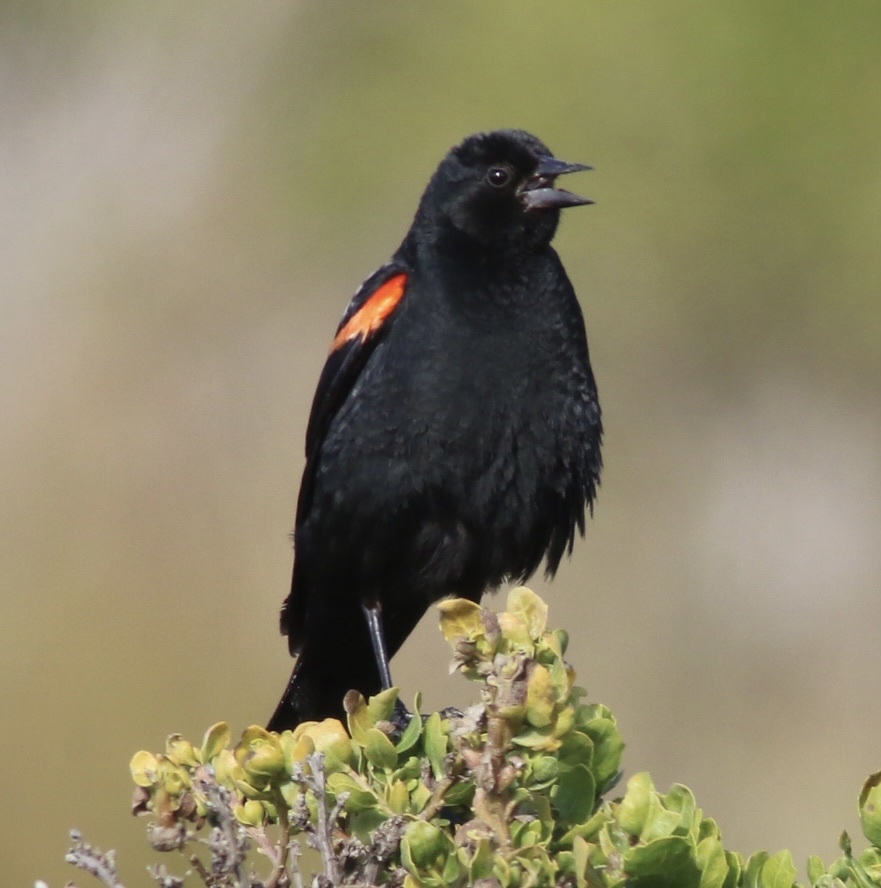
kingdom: Animalia
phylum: Chordata
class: Aves
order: Passeriformes
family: Icteridae
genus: Agelaius
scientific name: Agelaius phoeniceus
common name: Red-winged blackbird
